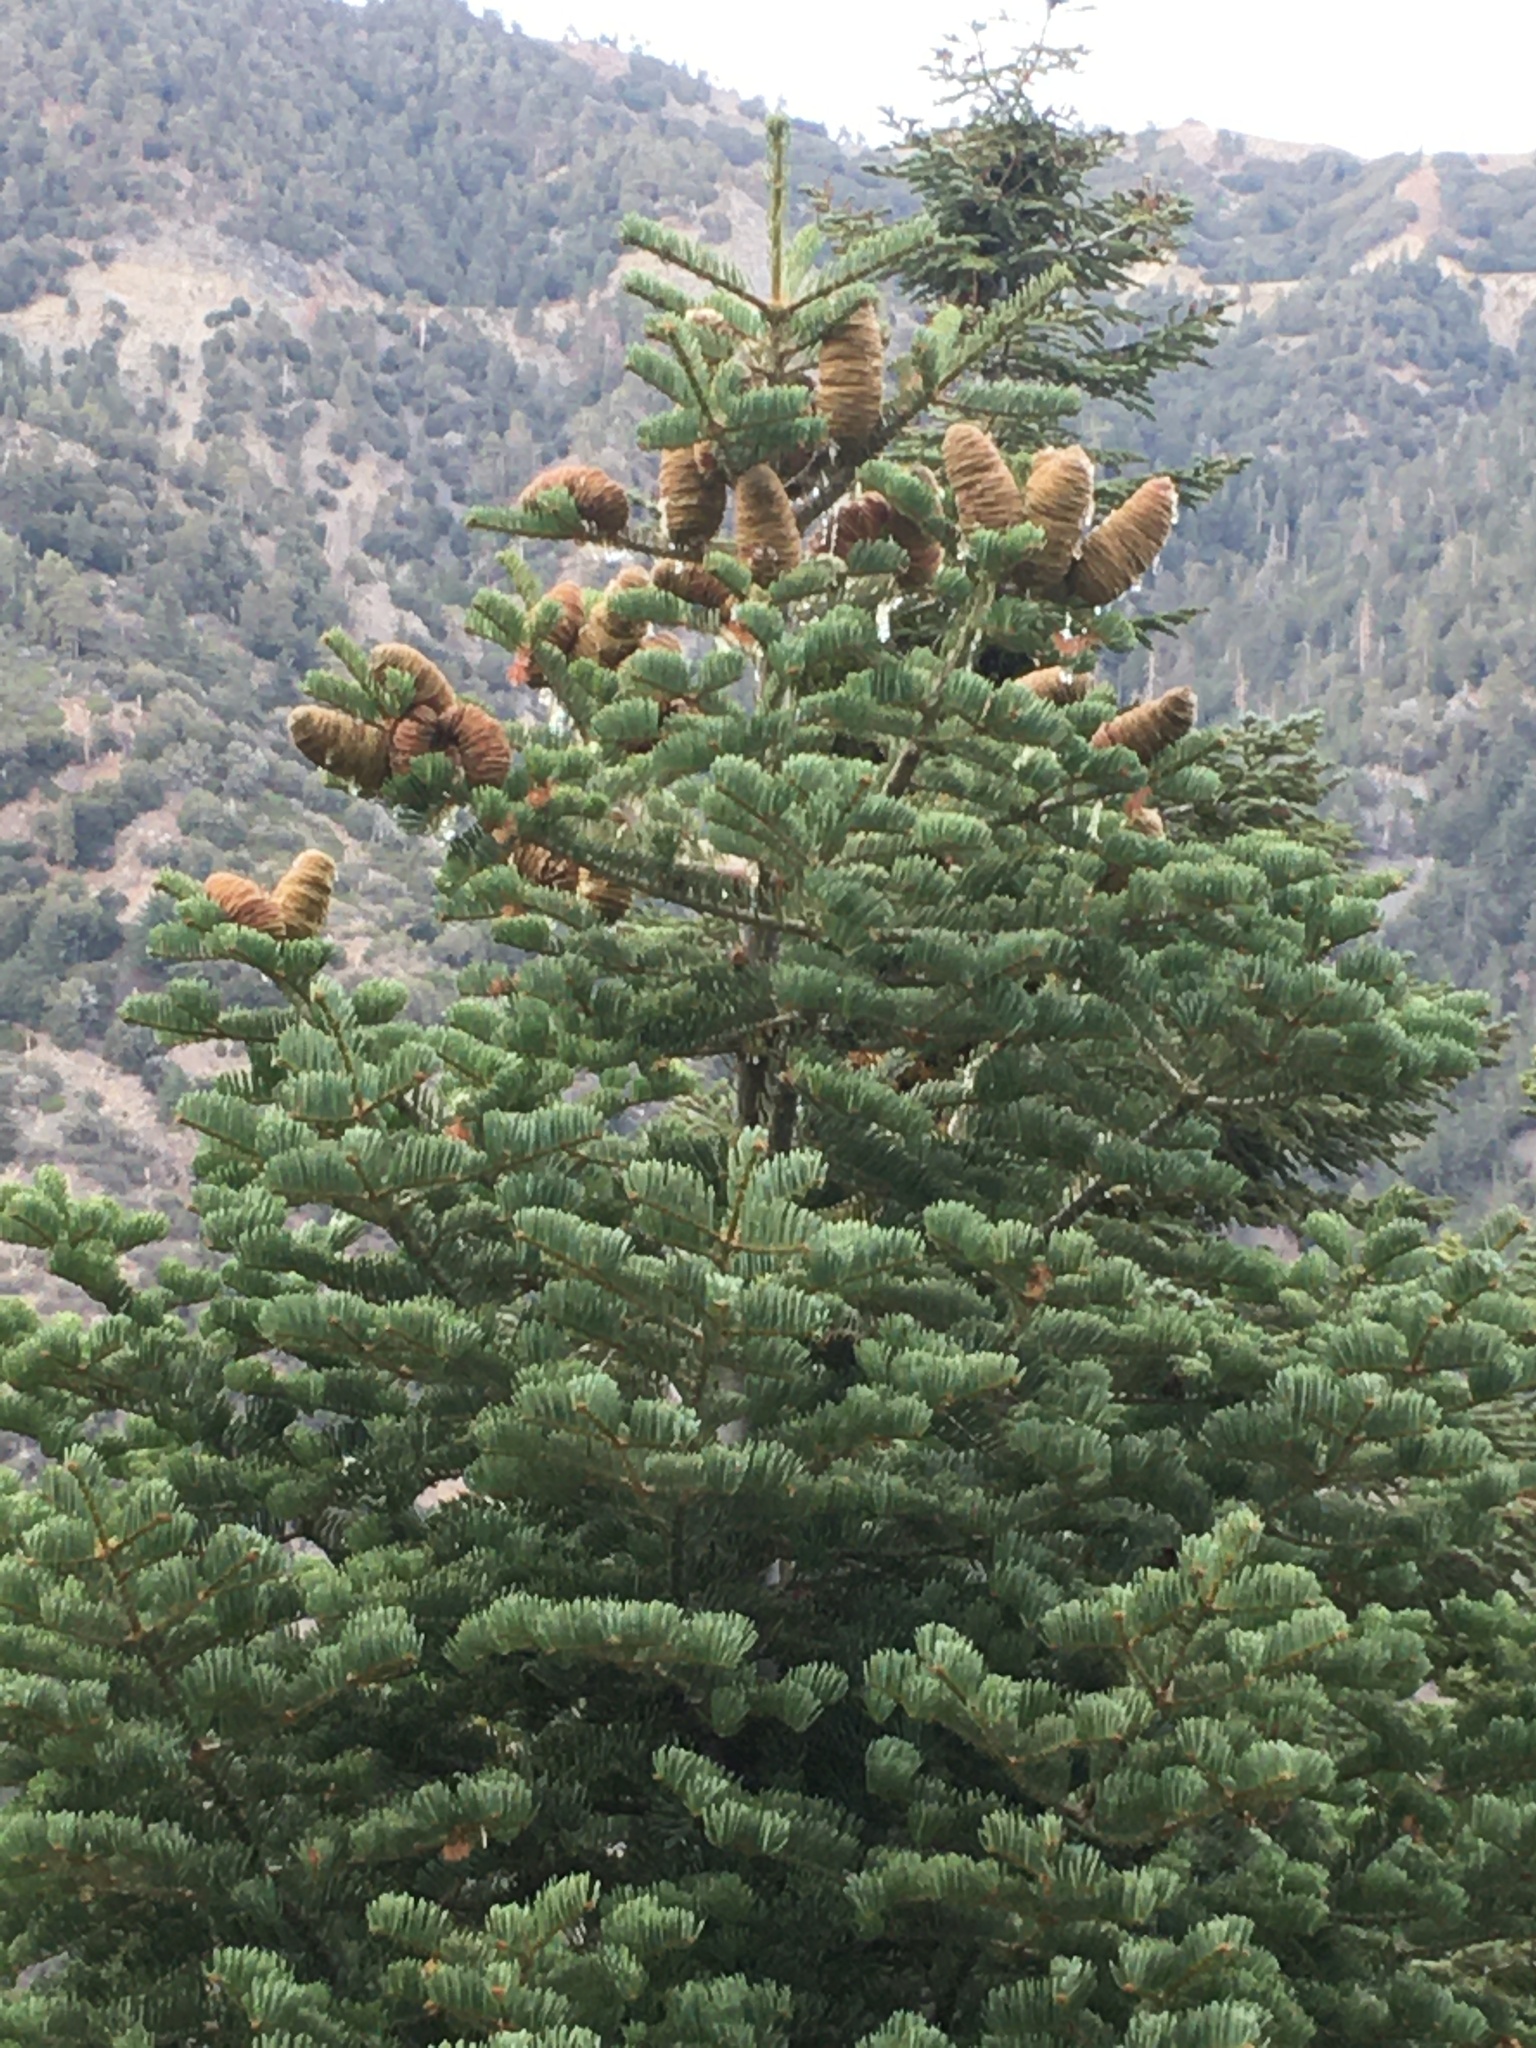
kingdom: Plantae
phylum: Tracheophyta
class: Pinopsida
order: Pinales
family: Pinaceae
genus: Abies
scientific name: Abies concolor
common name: Colorado fir
